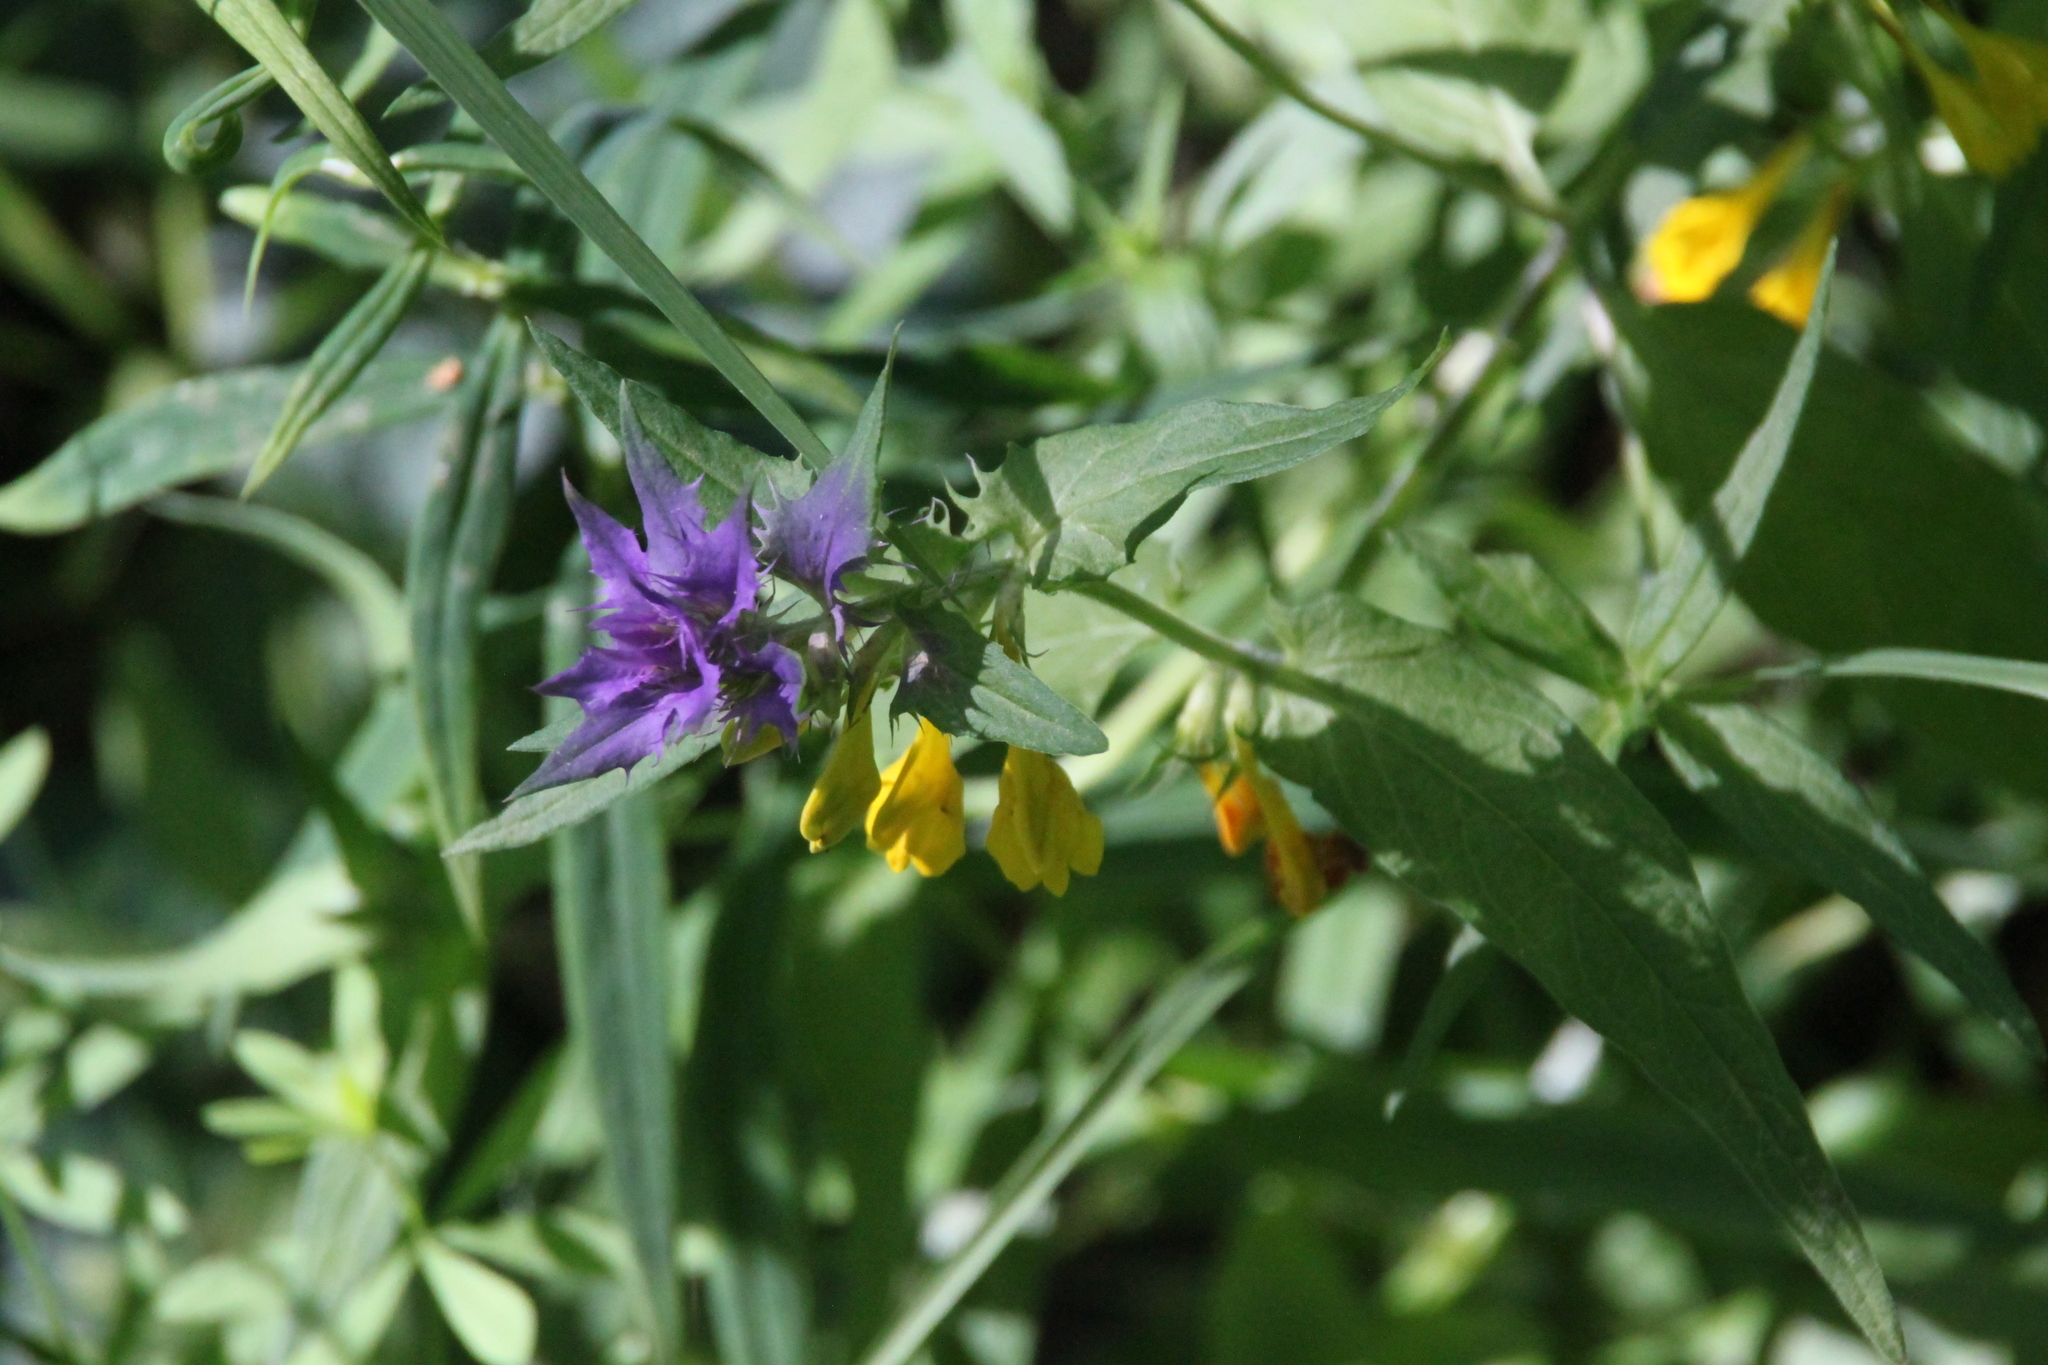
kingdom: Plantae
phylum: Tracheophyta
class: Magnoliopsida
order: Lamiales
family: Orobanchaceae
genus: Melampyrum
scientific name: Melampyrum nemorosum
